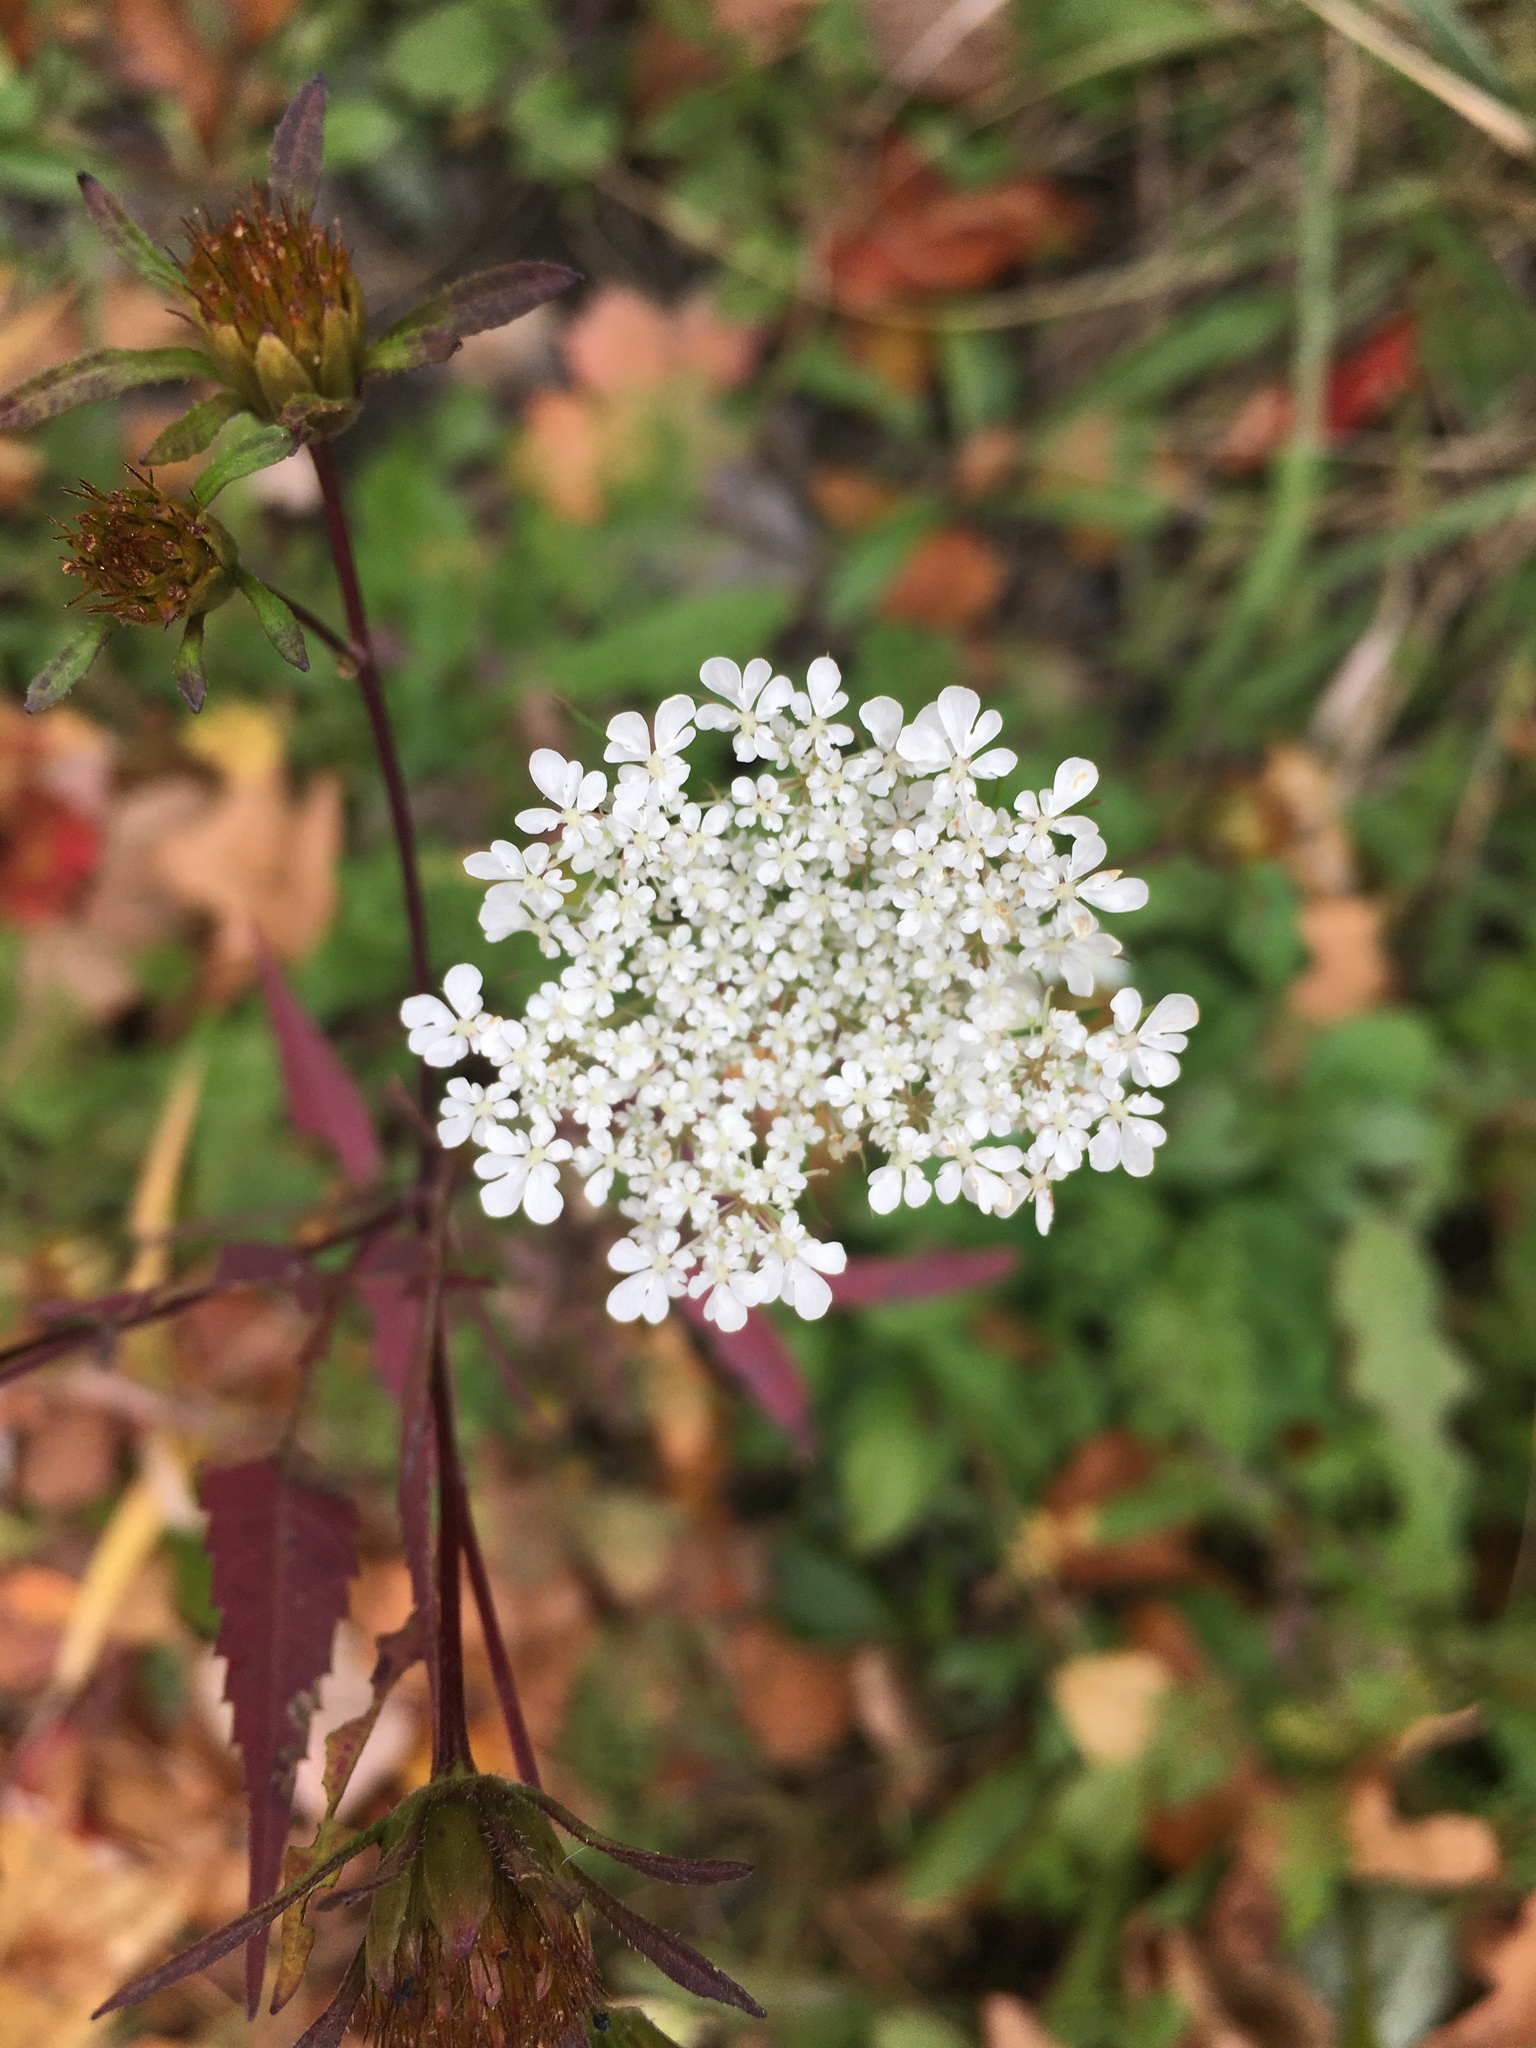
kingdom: Plantae
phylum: Tracheophyta
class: Magnoliopsida
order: Apiales
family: Apiaceae
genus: Daucus
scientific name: Daucus carota
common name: Wild carrot
